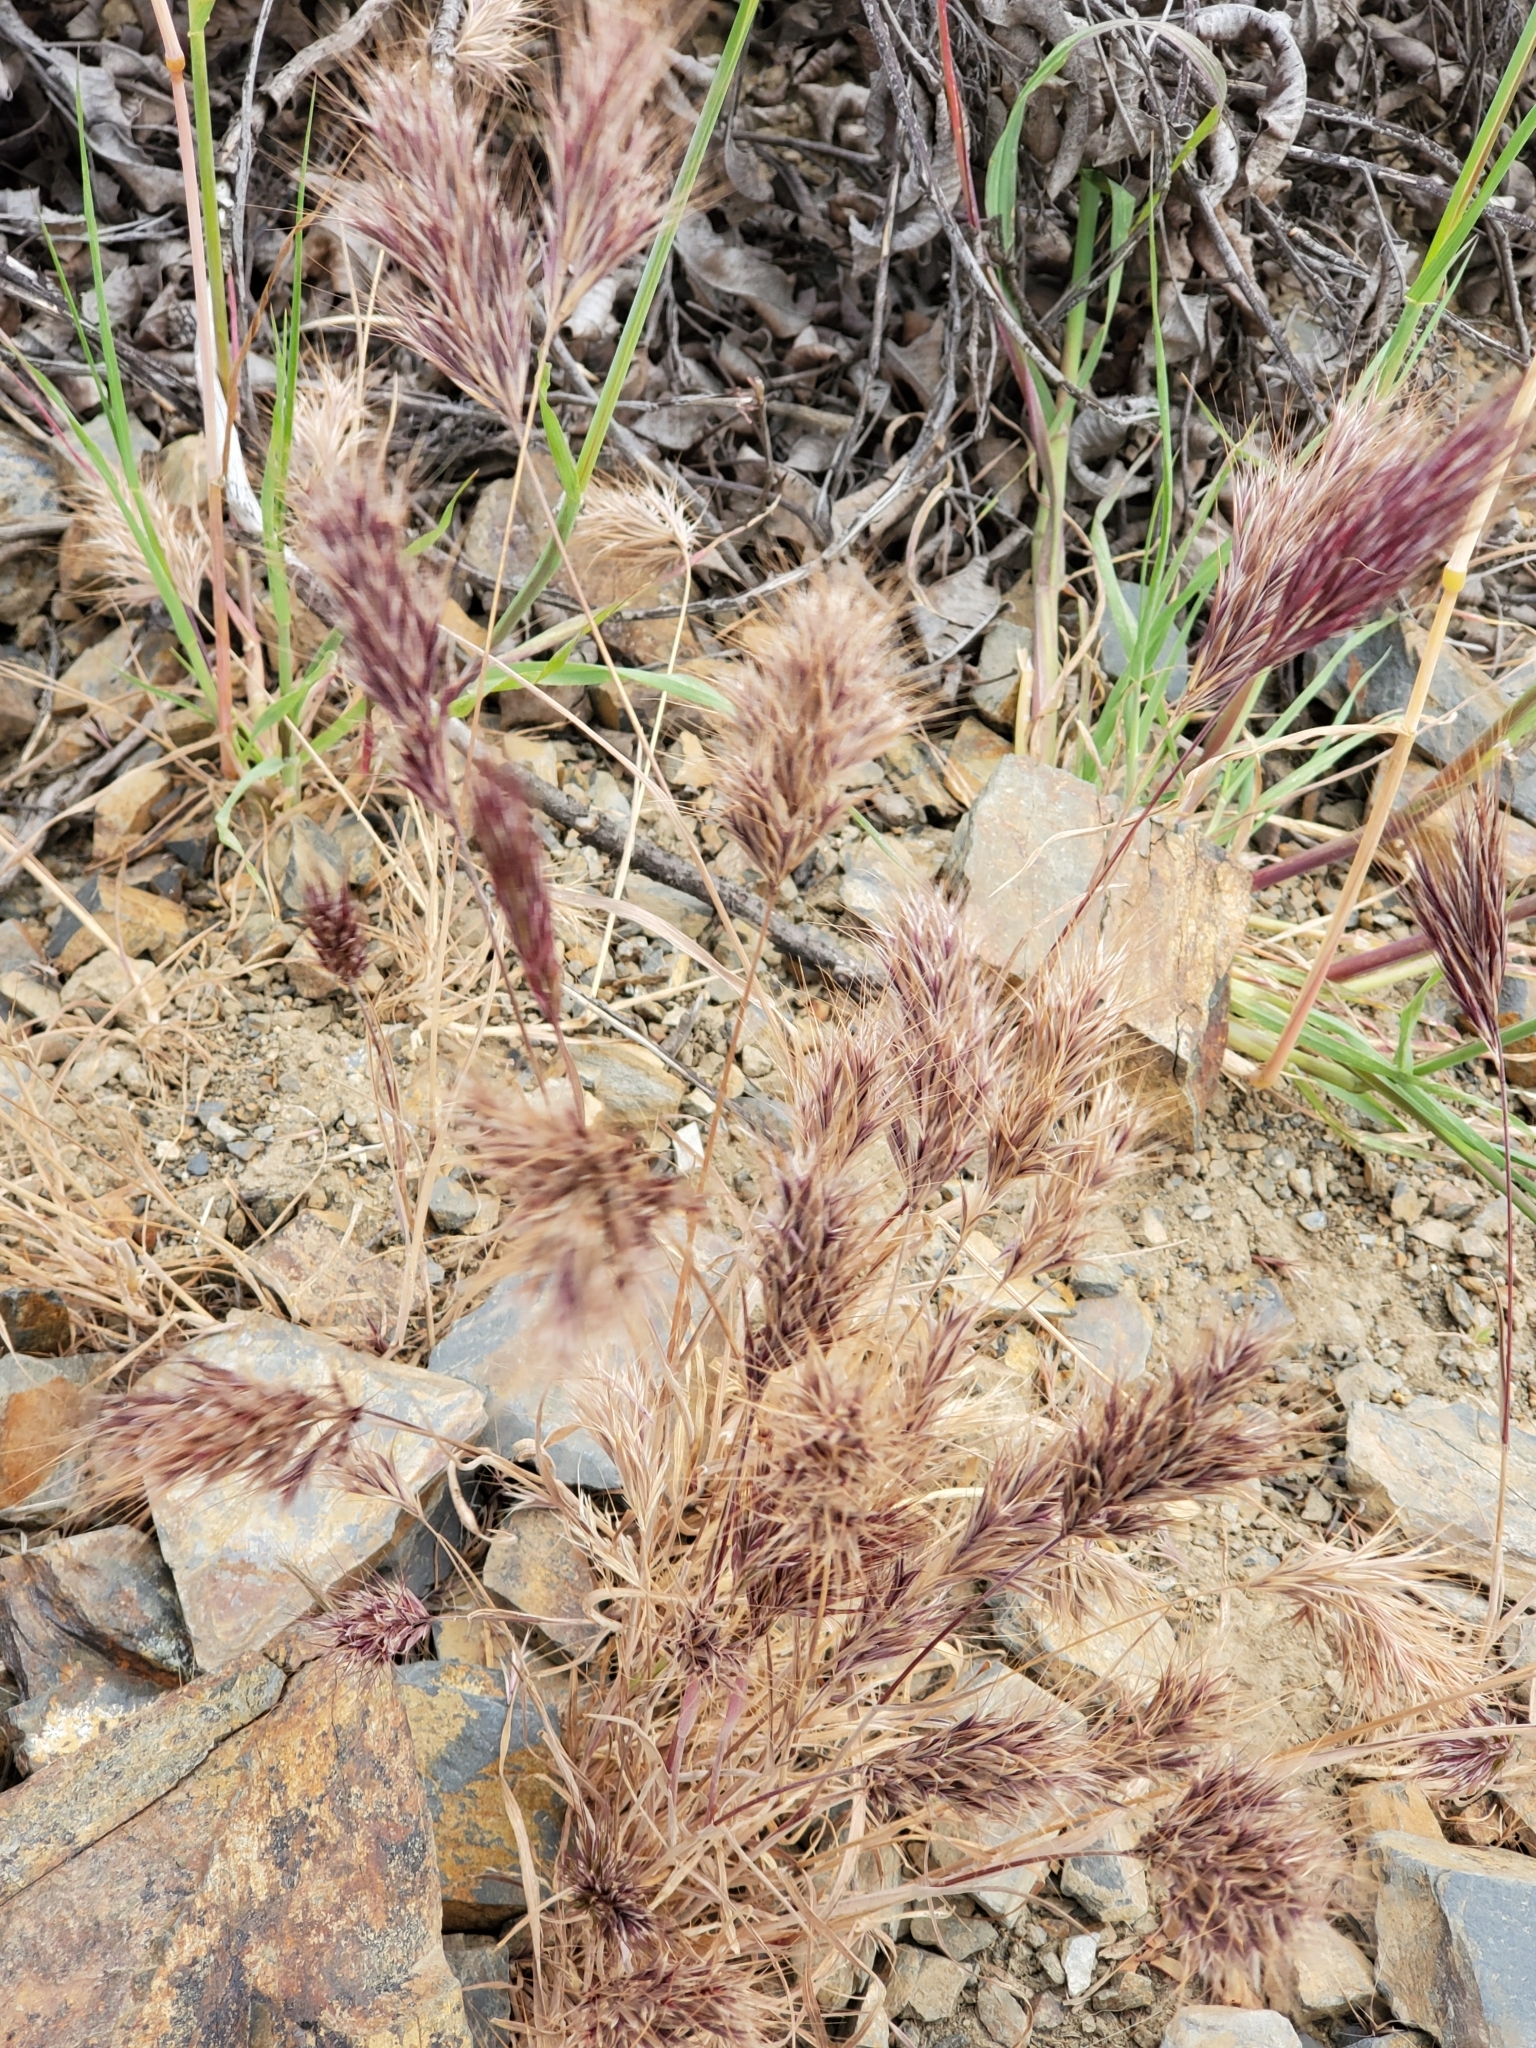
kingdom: Plantae
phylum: Tracheophyta
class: Liliopsida
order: Poales
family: Poaceae
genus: Bromus
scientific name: Bromus rubens
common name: Red brome
